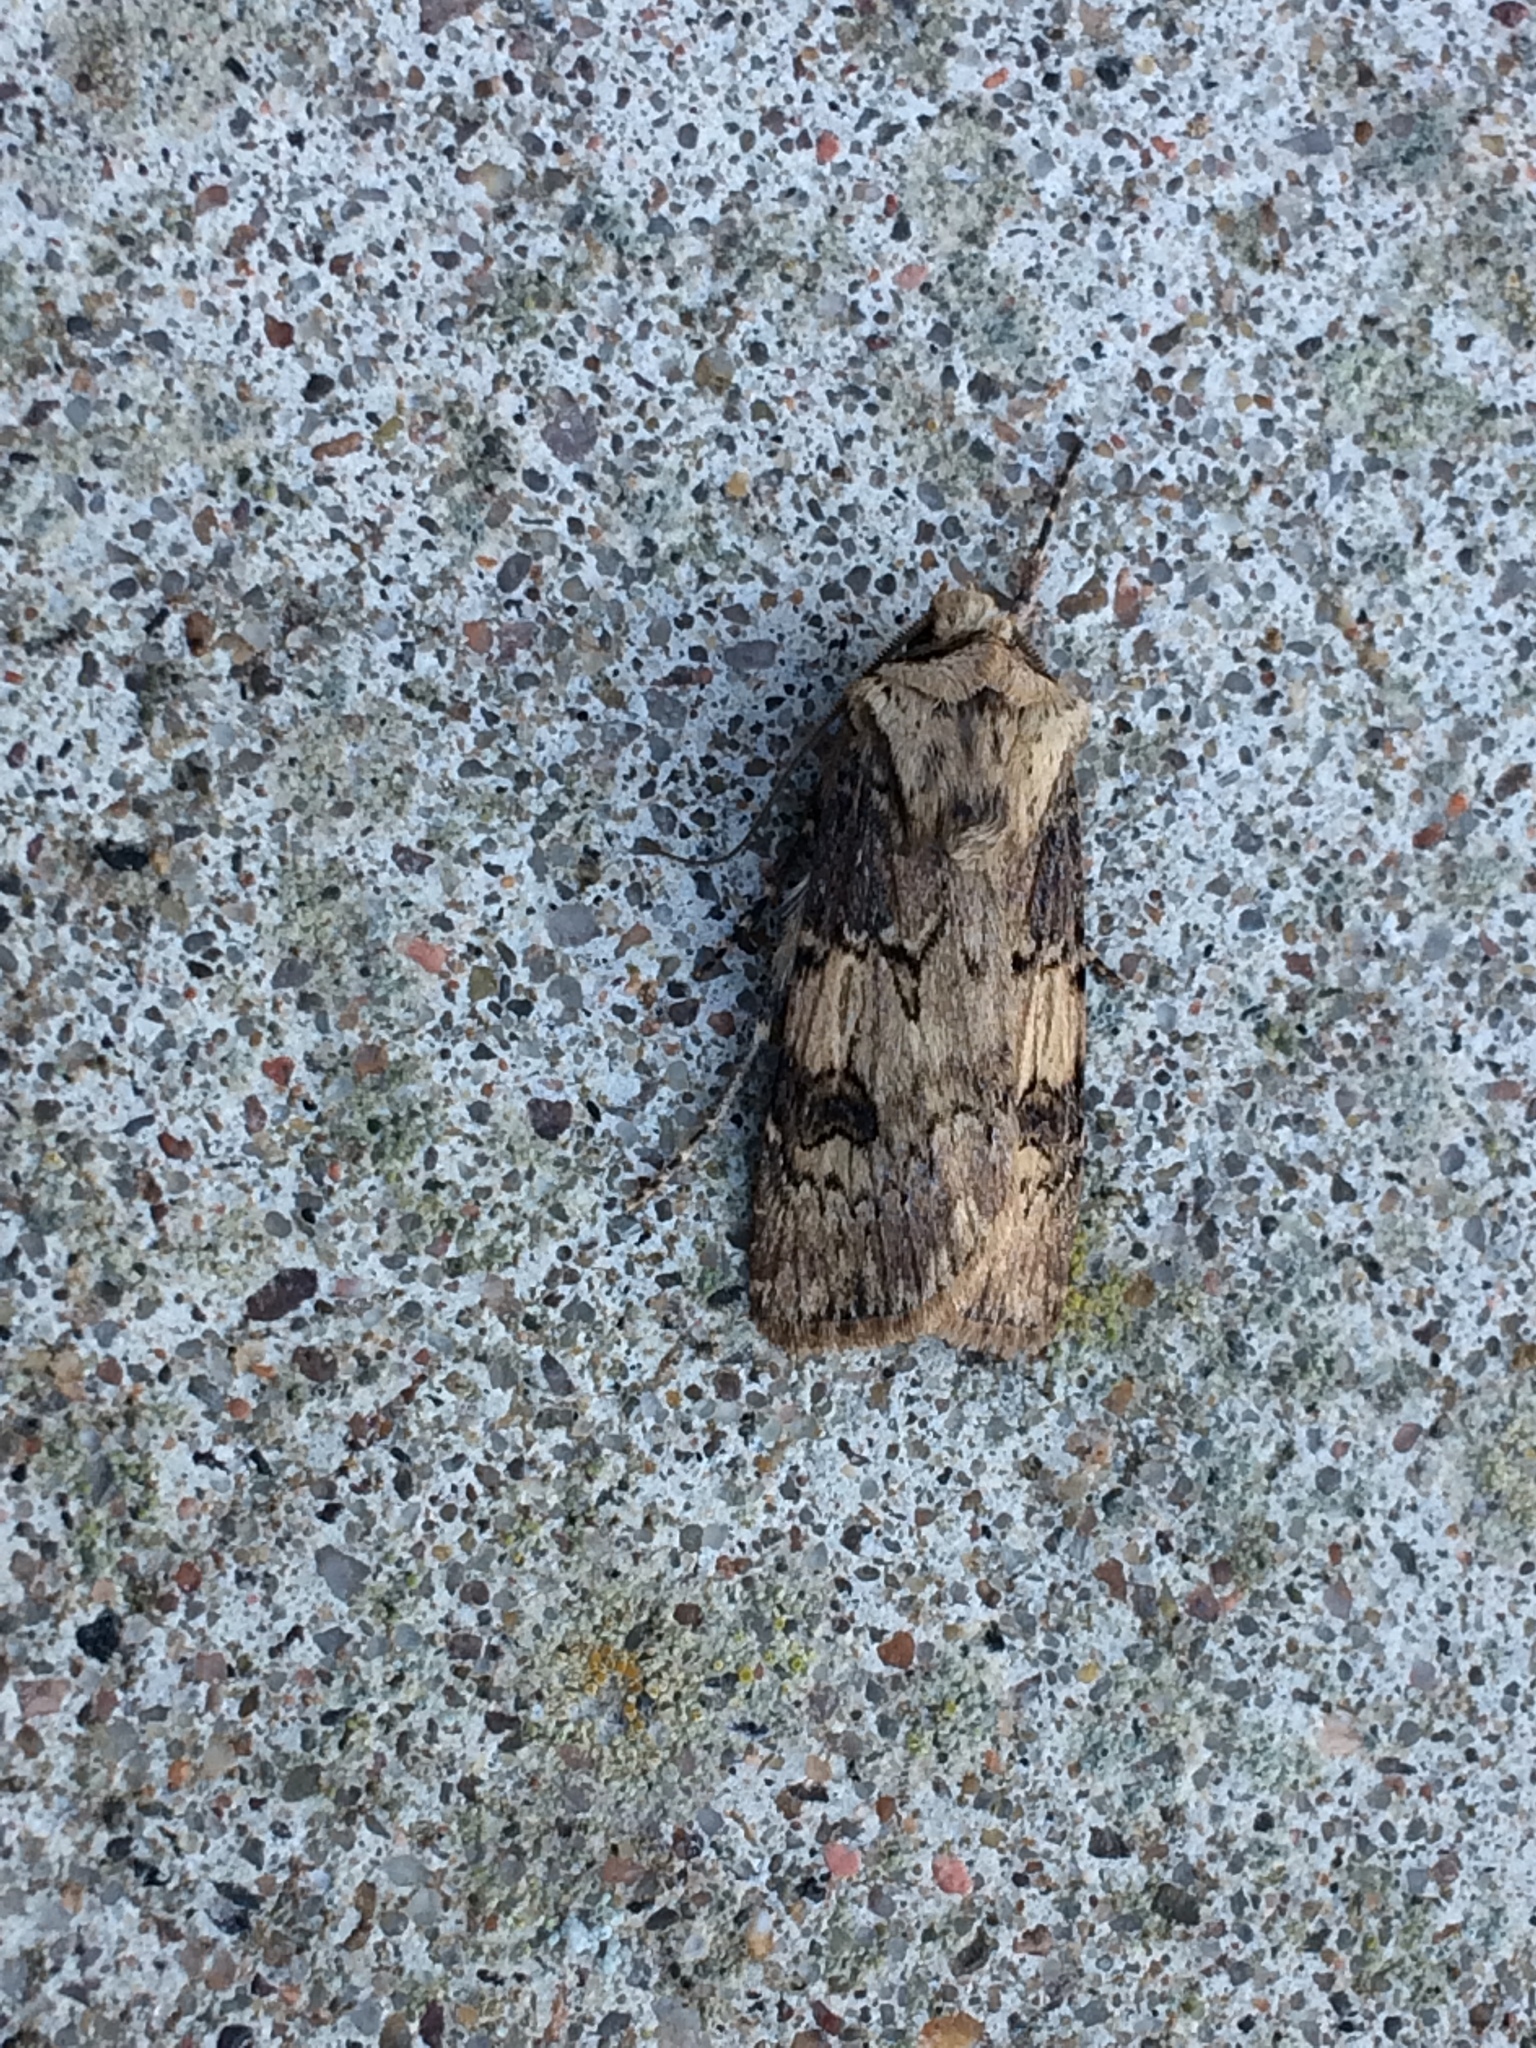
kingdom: Animalia
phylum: Arthropoda
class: Insecta
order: Lepidoptera
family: Noctuidae
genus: Agrotis
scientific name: Agrotis puta
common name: Shuttle-shaped dart
